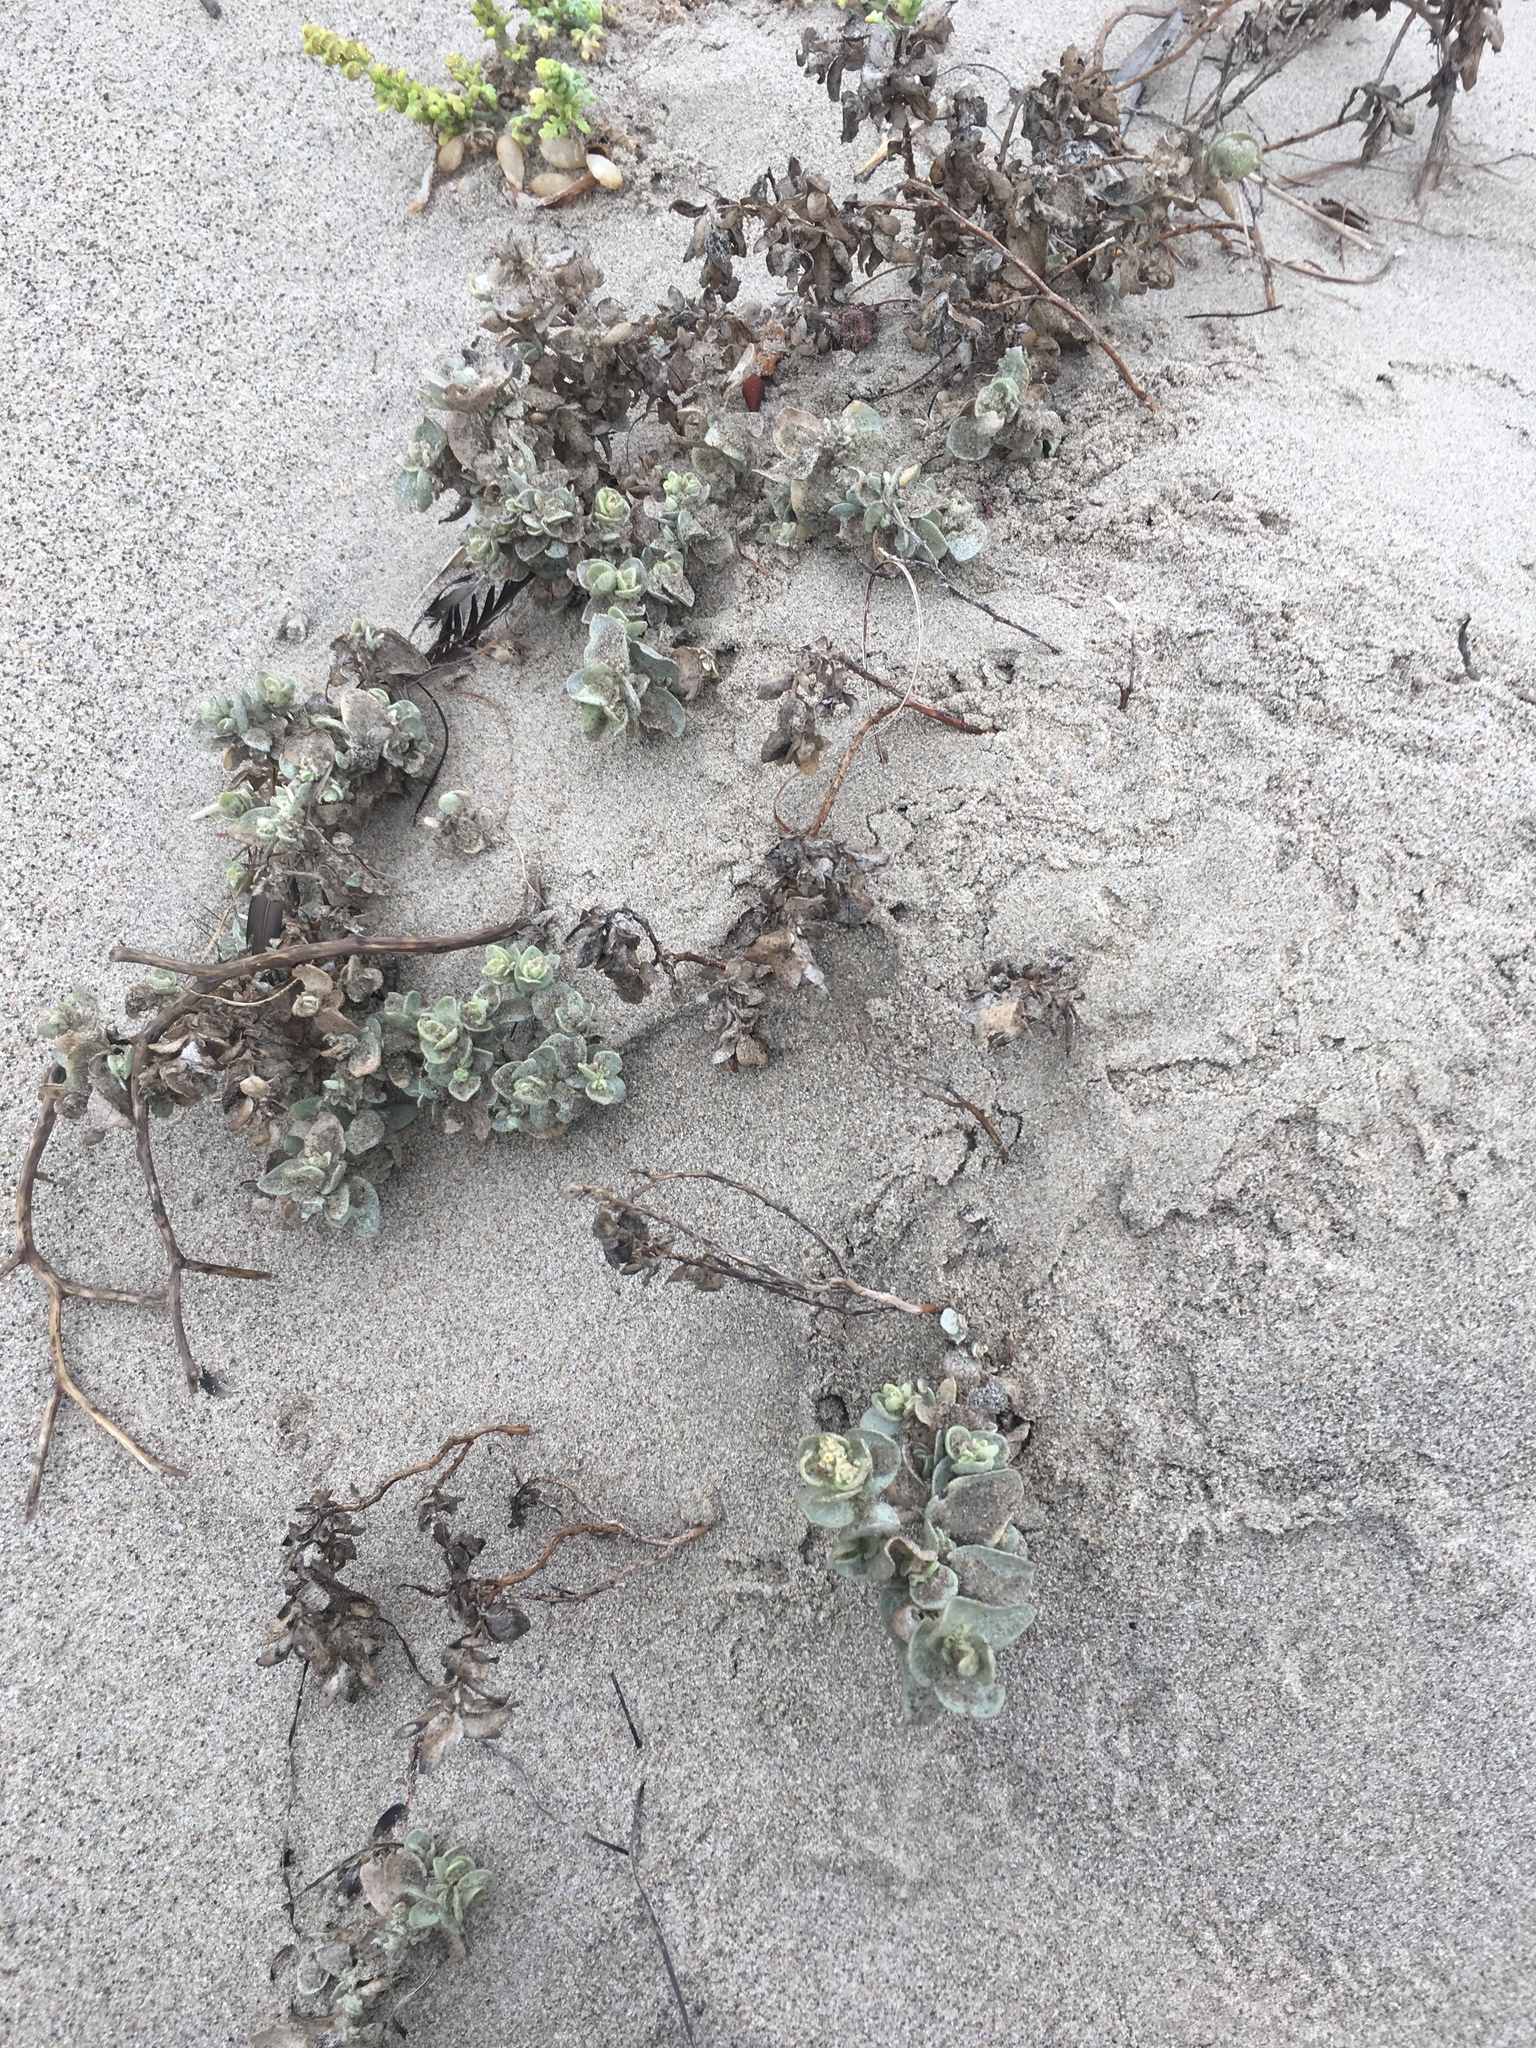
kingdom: Plantae
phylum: Tracheophyta
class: Magnoliopsida
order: Caryophyllales
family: Amaranthaceae
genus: Atriplex
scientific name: Atriplex leucophylla
